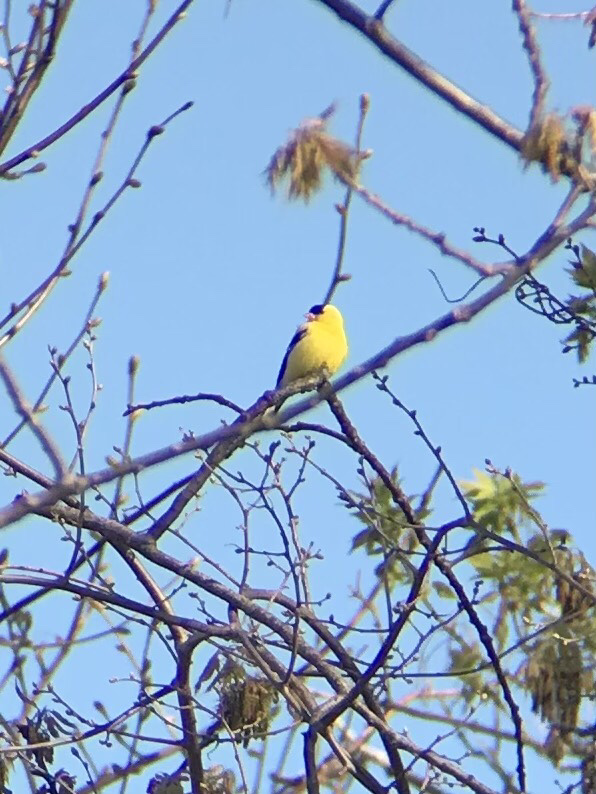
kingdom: Animalia
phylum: Chordata
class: Aves
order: Passeriformes
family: Fringillidae
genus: Spinus
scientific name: Spinus tristis
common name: American goldfinch
